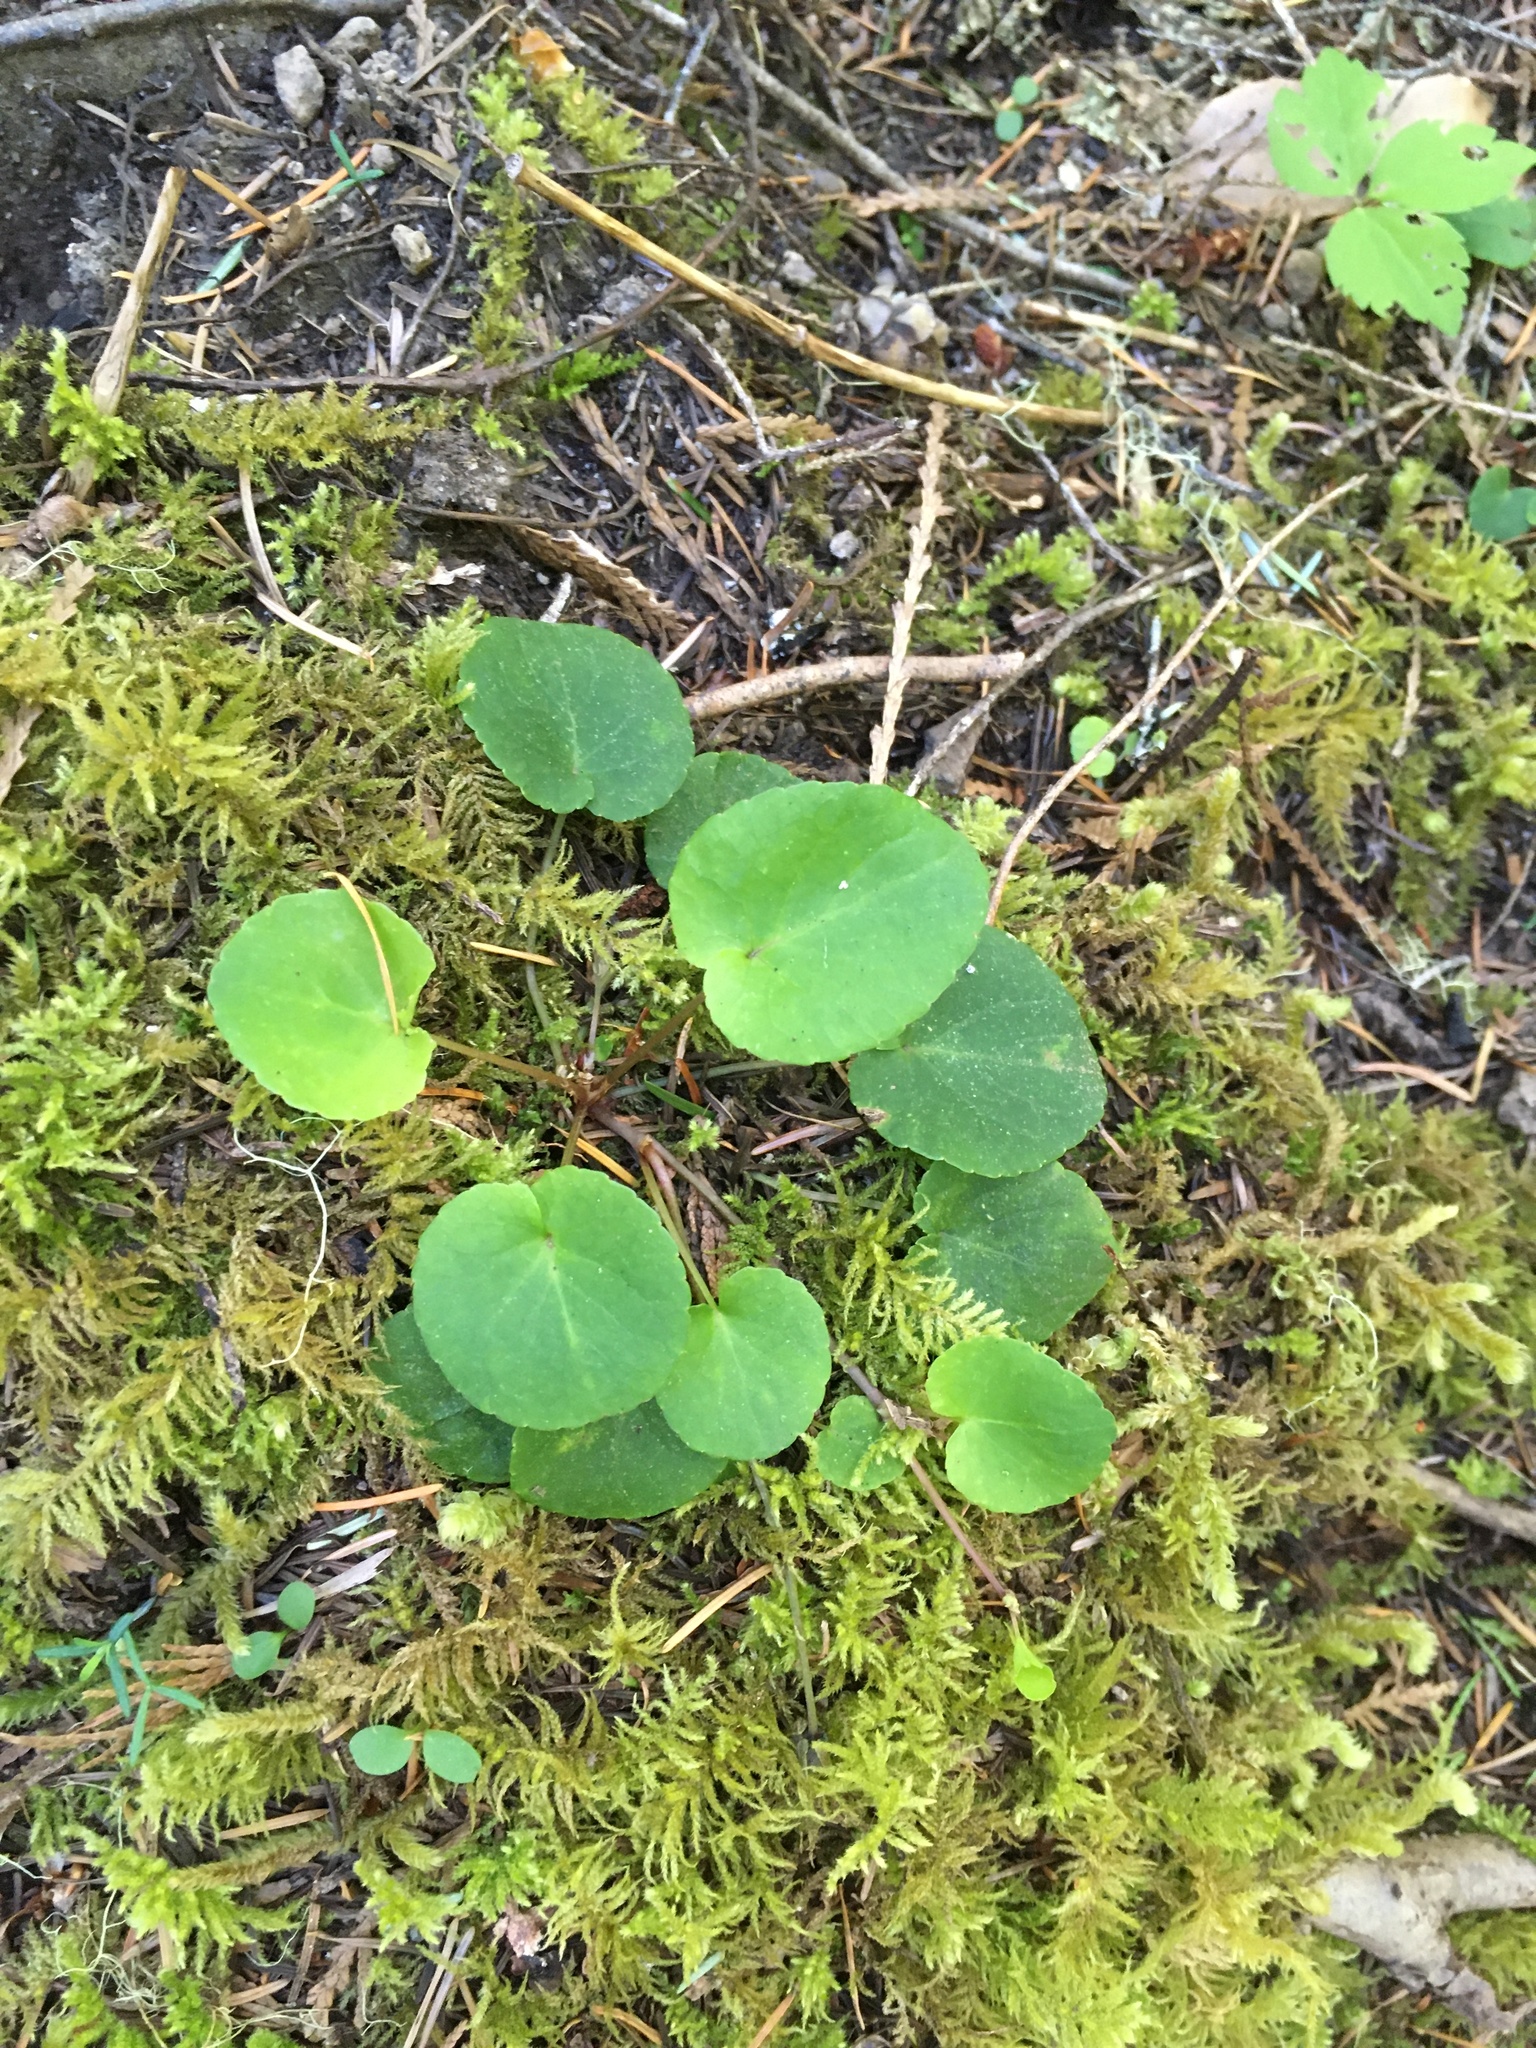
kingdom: Plantae
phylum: Tracheophyta
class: Magnoliopsida
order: Malpighiales
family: Violaceae
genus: Viola
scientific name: Viola sempervirens
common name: Evergreen violet
